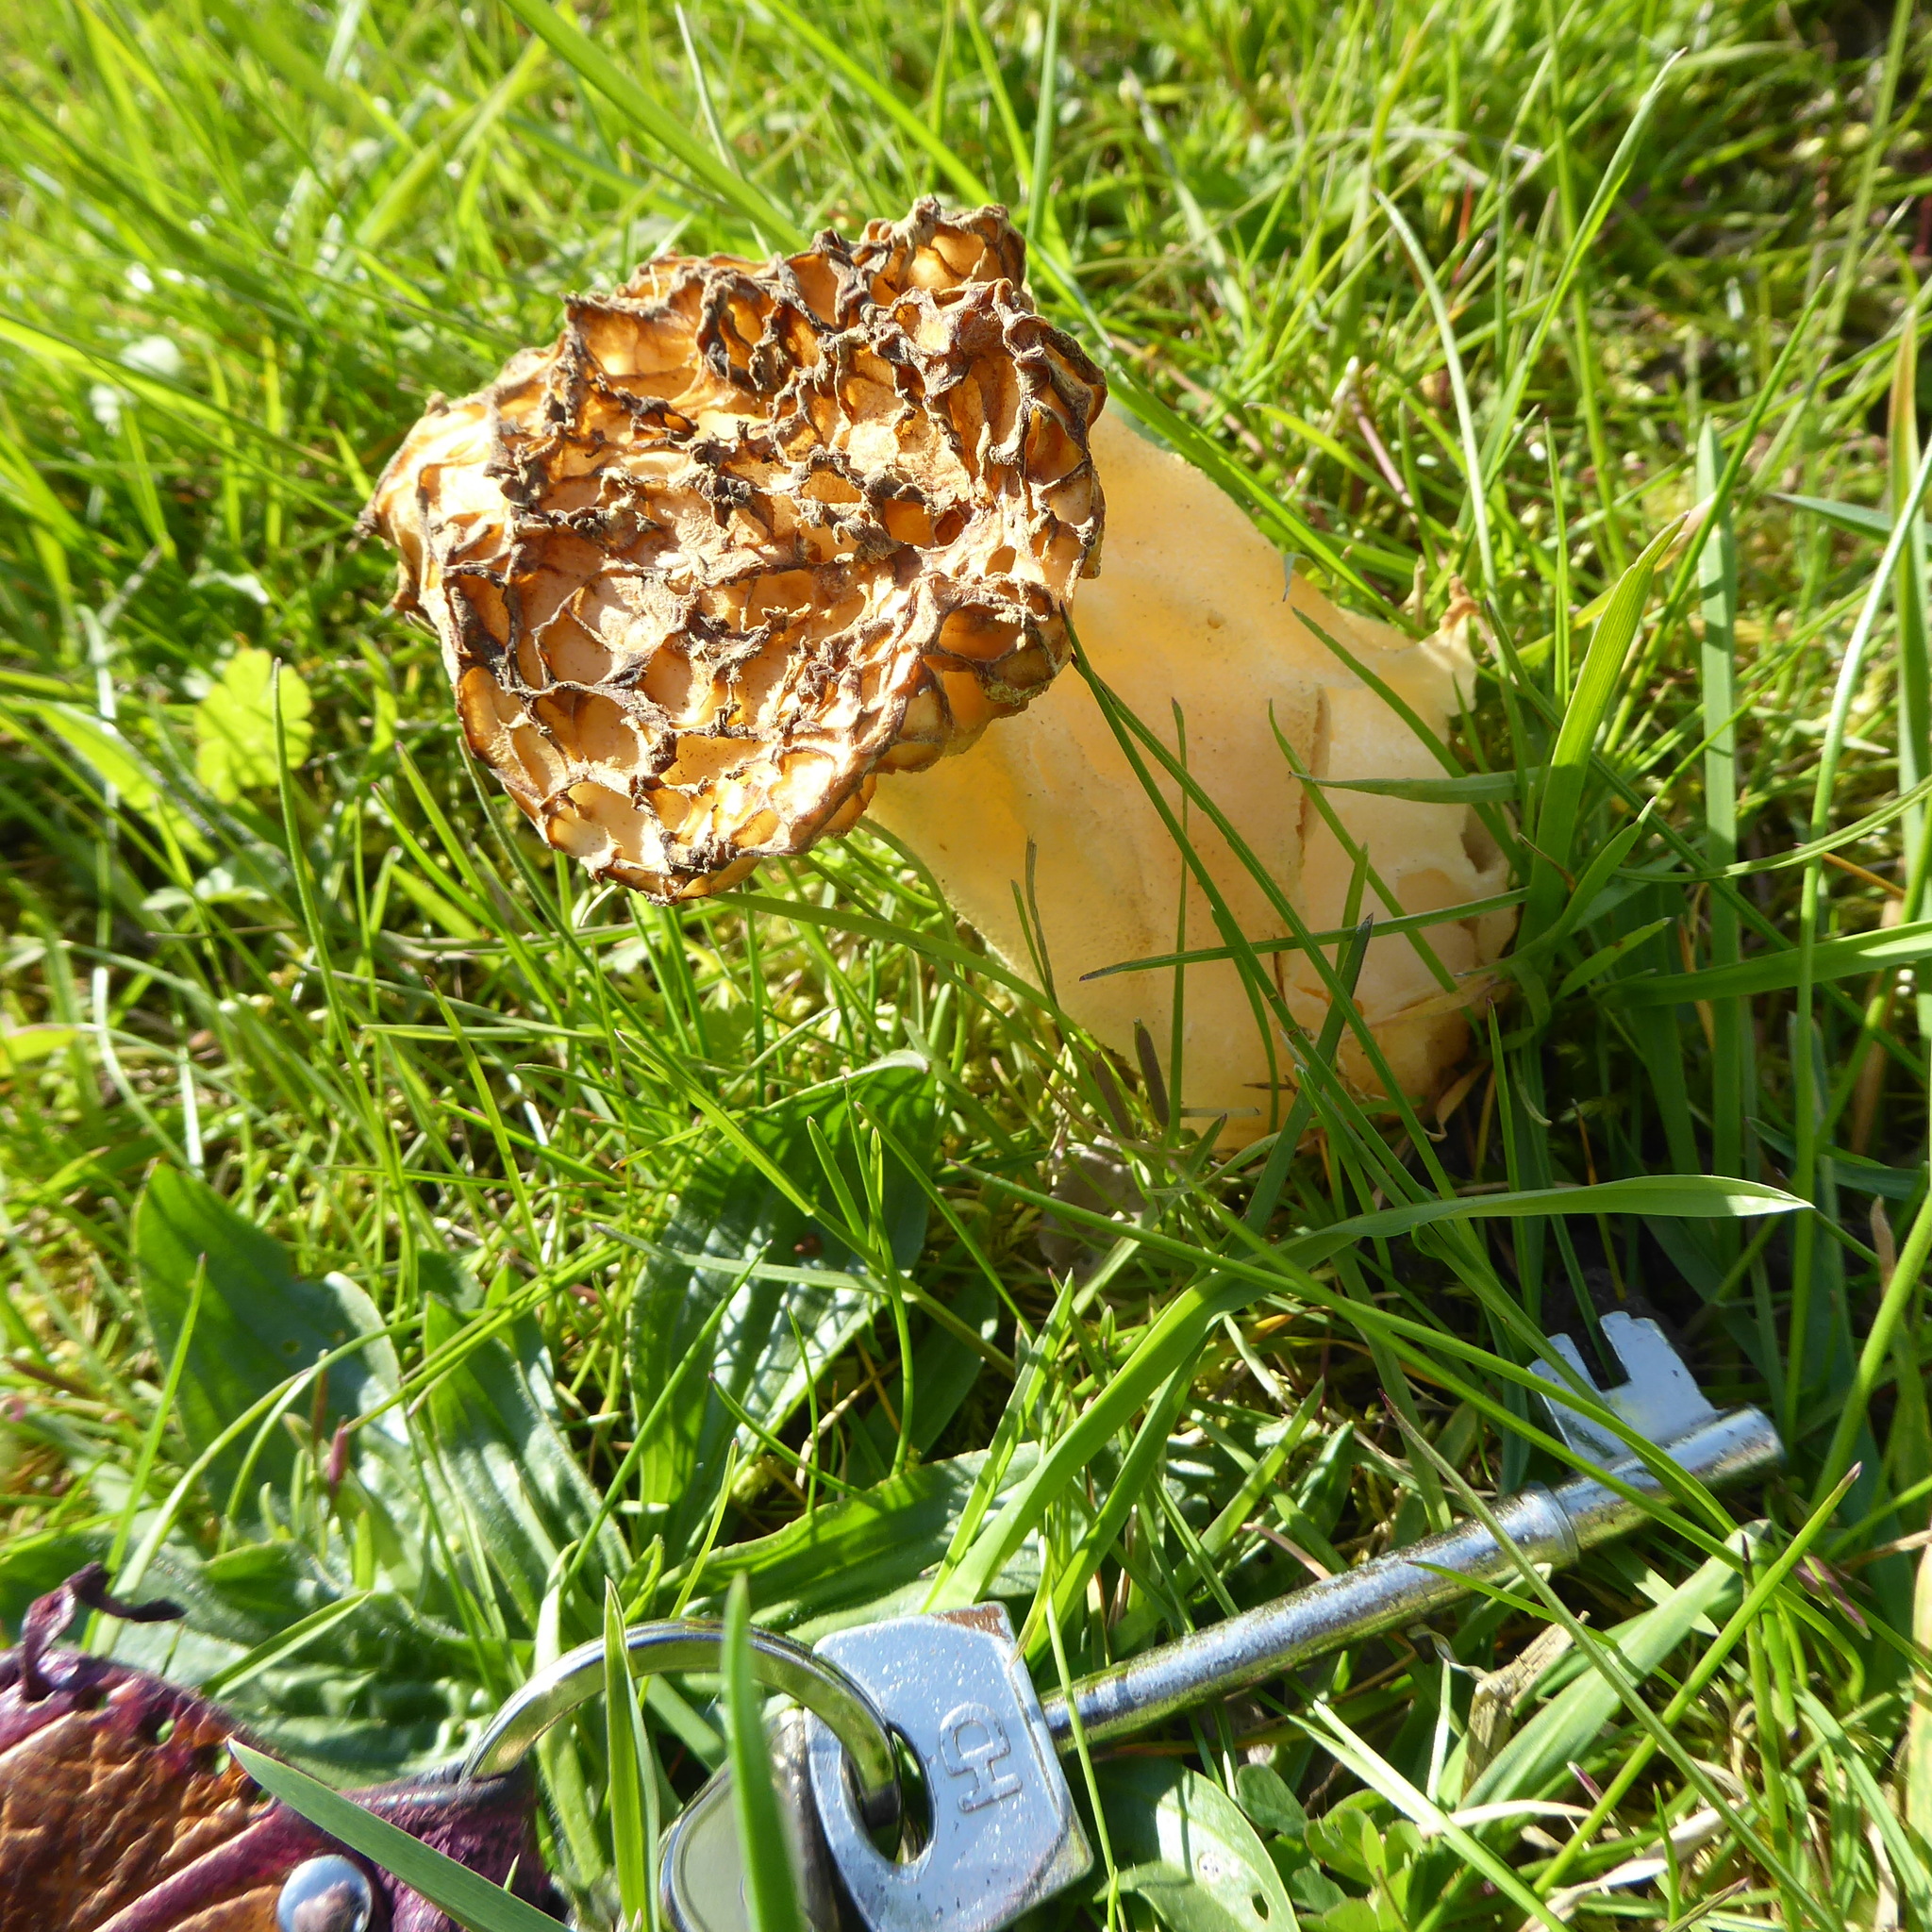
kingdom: Fungi
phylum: Ascomycota
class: Pezizomycetes
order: Pezizales
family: Morchellaceae
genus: Morchella
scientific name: Morchella semilibera
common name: Semifree morel
